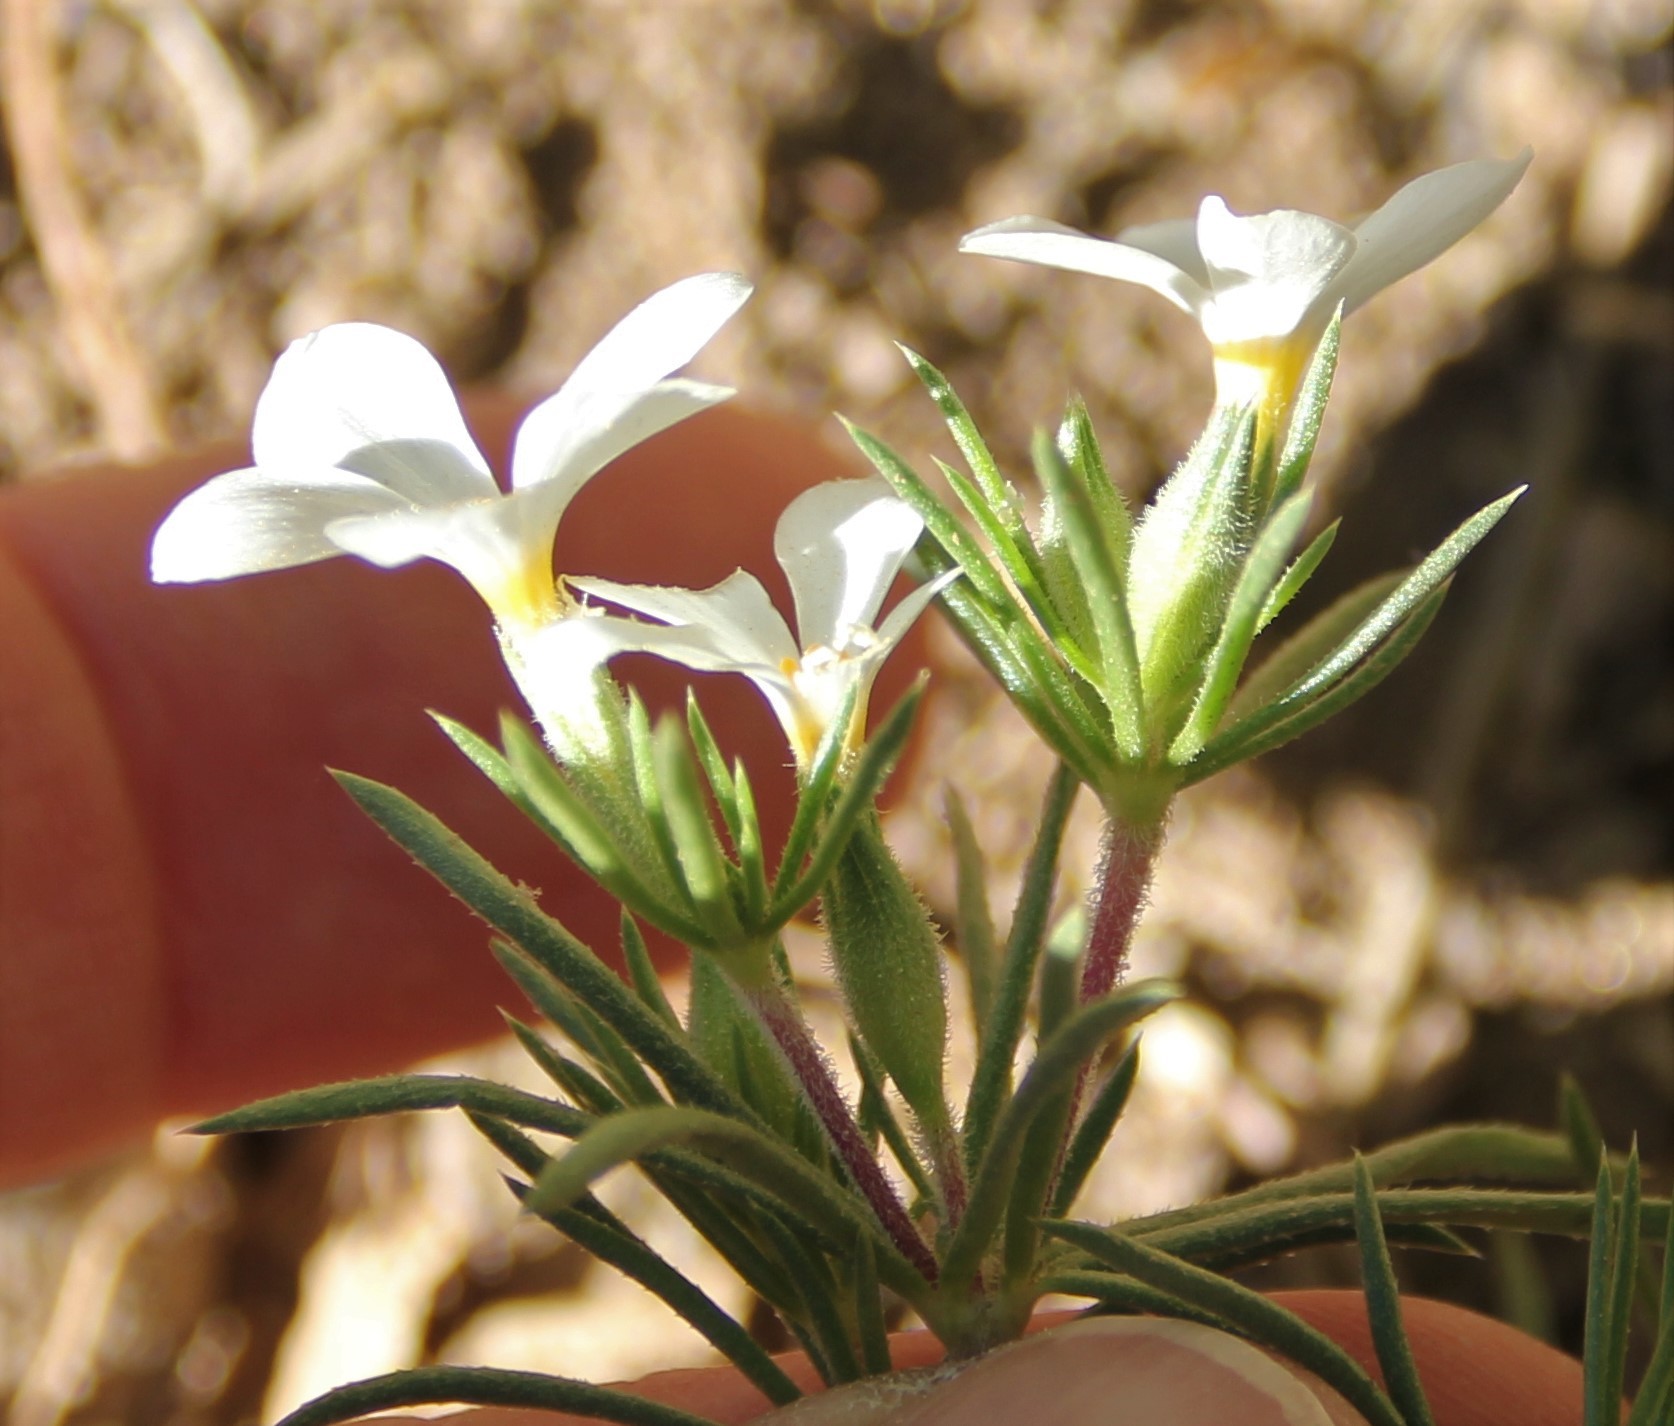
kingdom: Plantae
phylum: Tracheophyta
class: Magnoliopsida
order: Ericales
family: Polemoniaceae
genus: Leptosiphon
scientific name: Leptosiphon floribundum
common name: Many-flower linanthus
